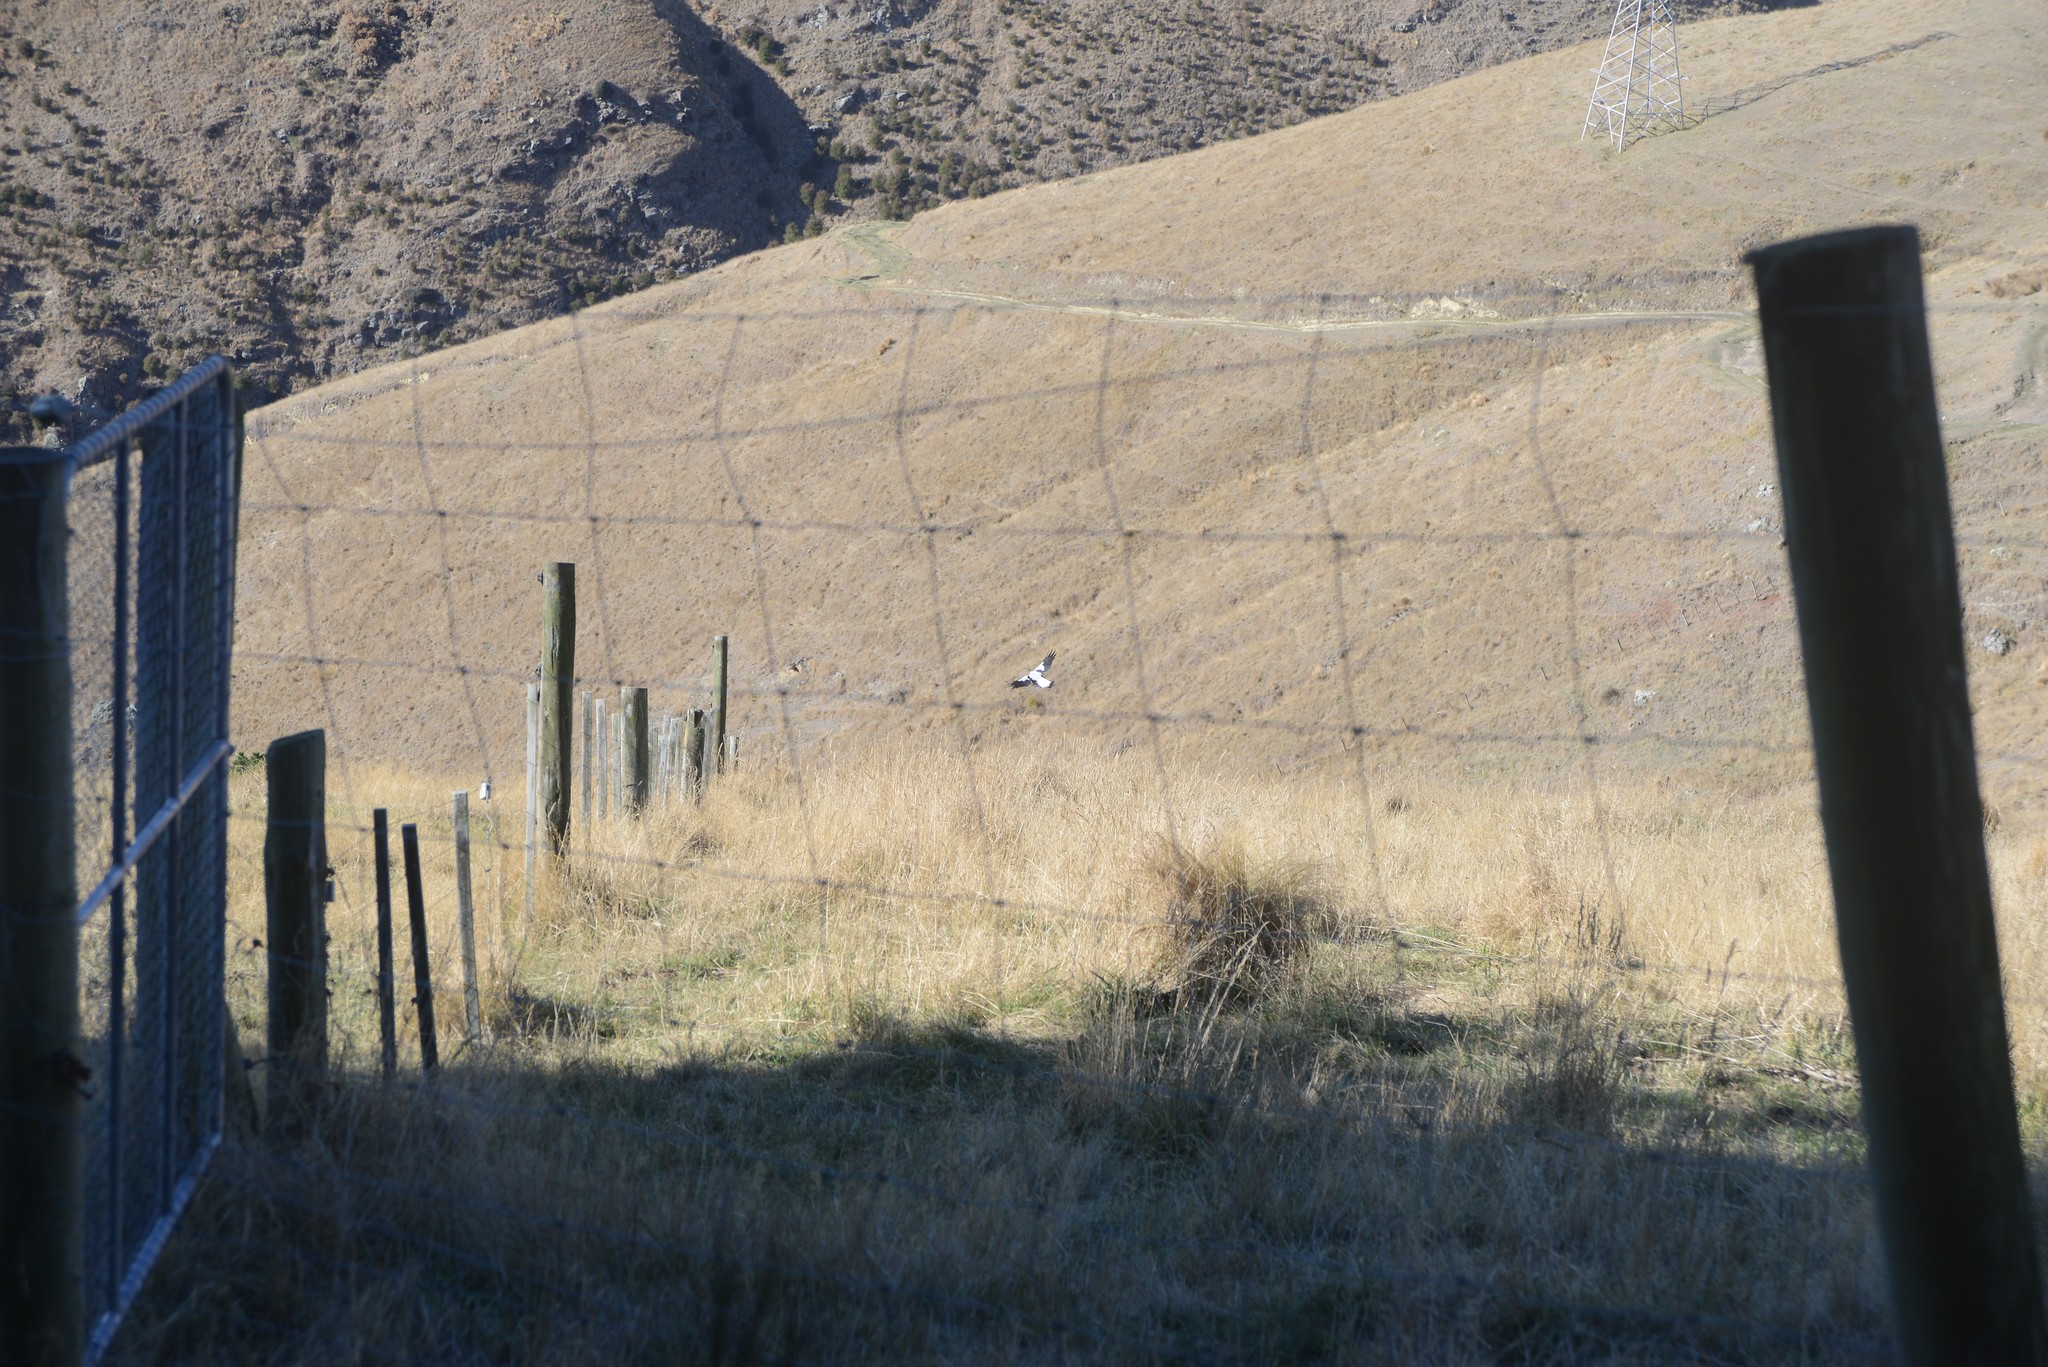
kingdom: Animalia
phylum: Chordata
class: Aves
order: Passeriformes
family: Cracticidae
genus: Gymnorhina
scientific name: Gymnorhina tibicen
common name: Australian magpie
